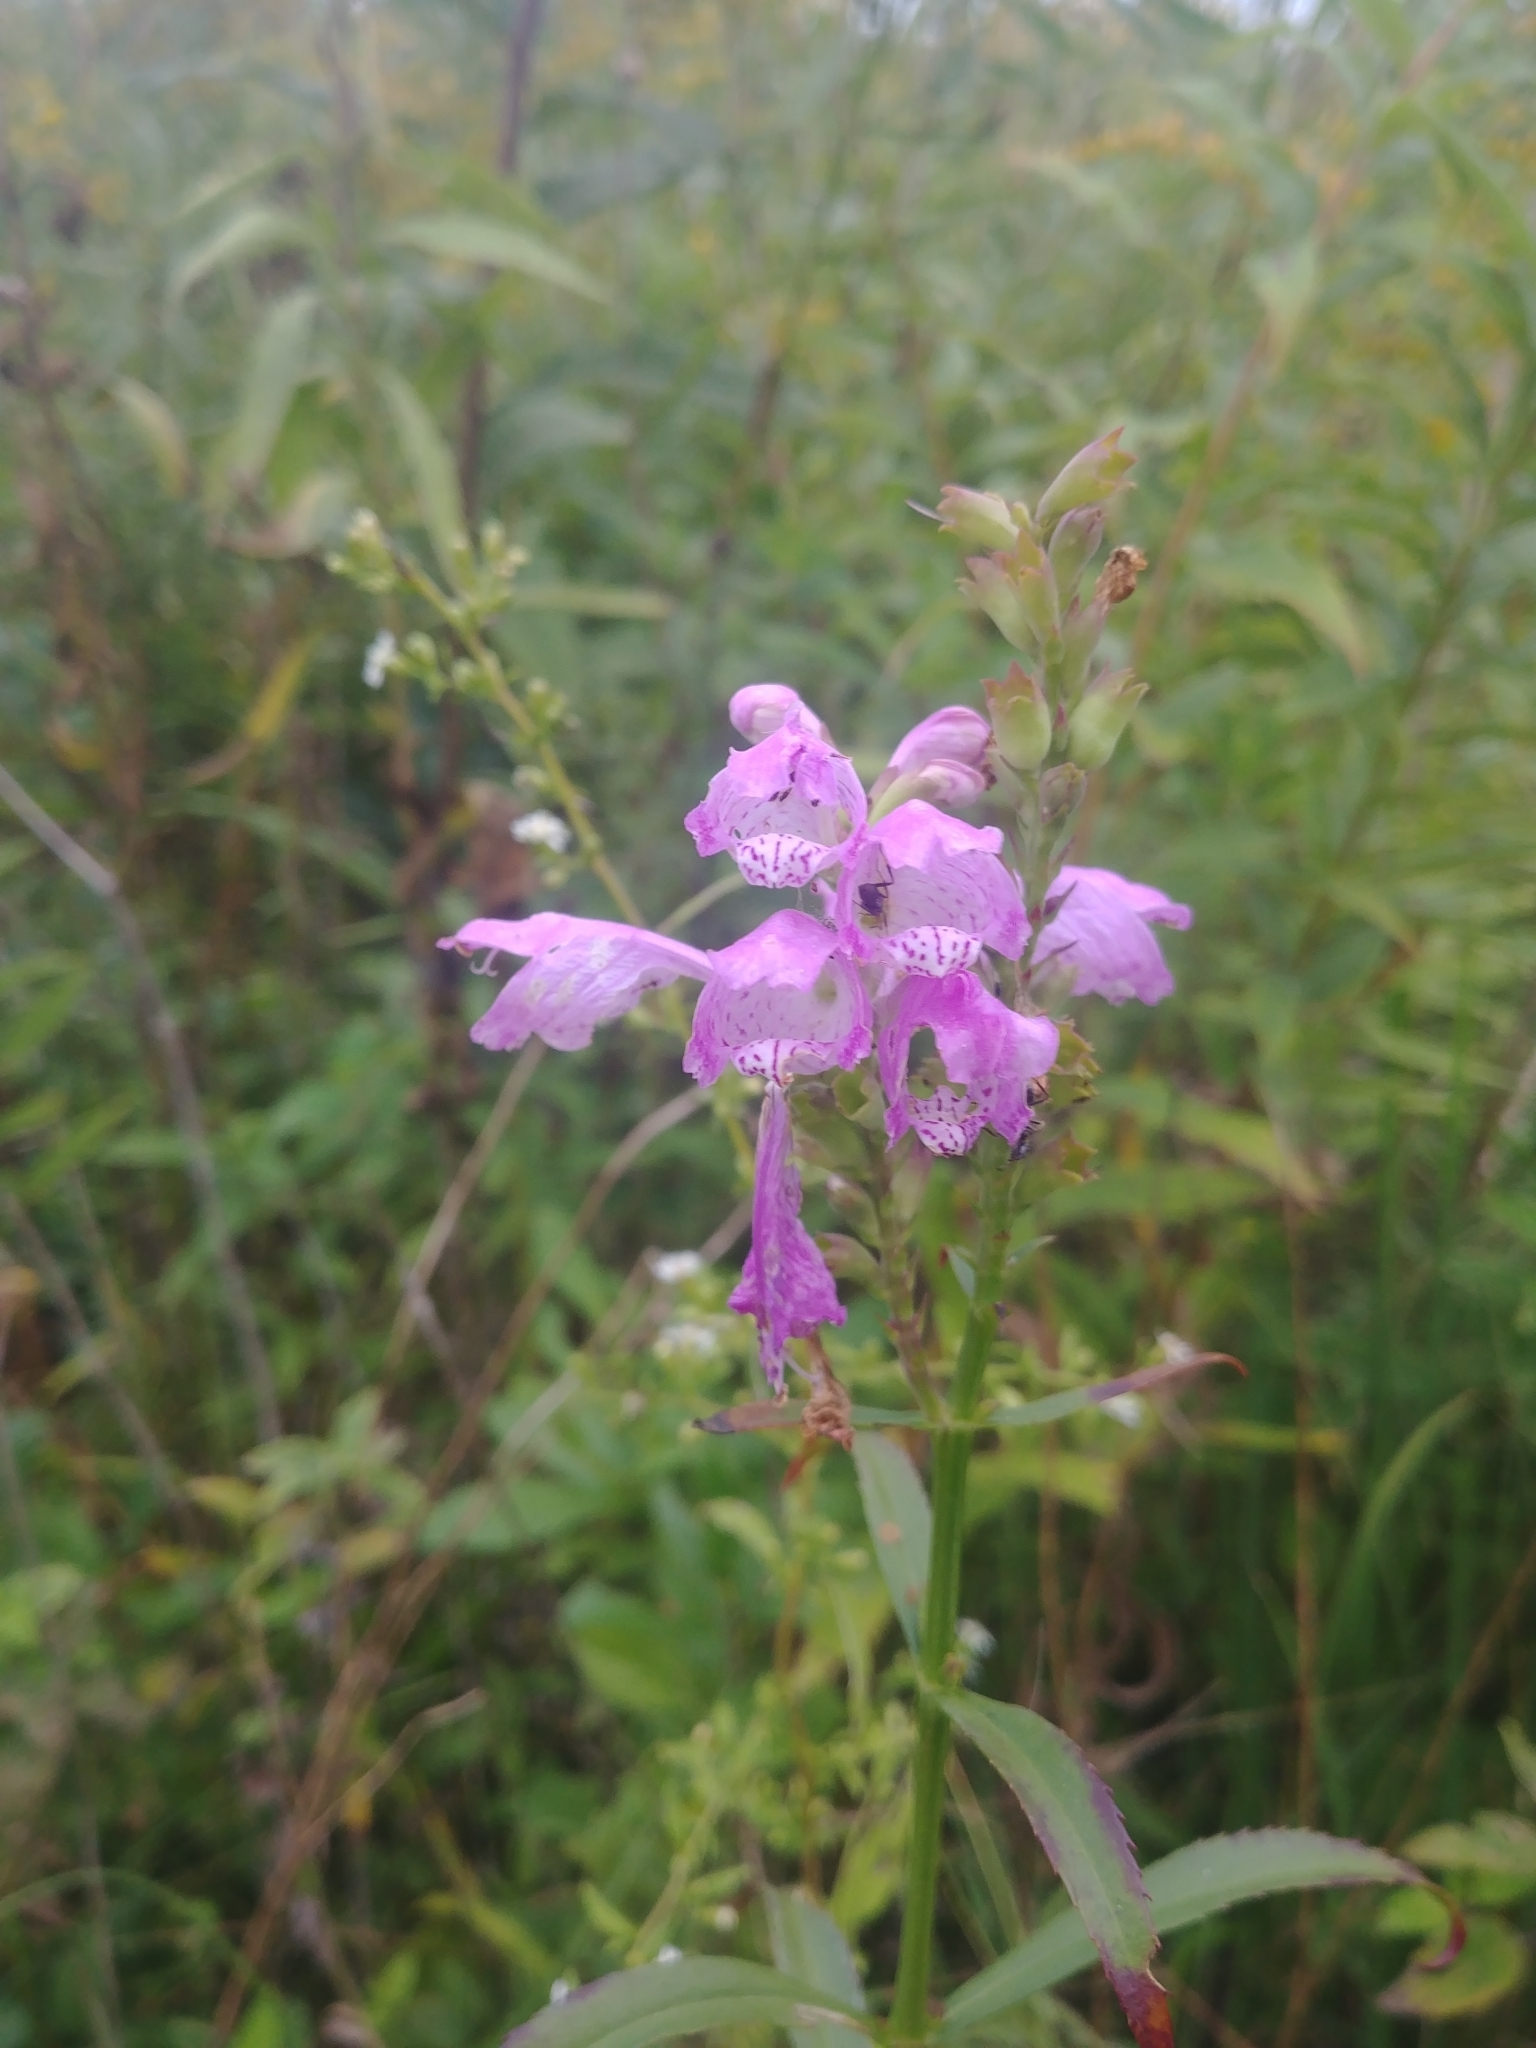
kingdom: Plantae
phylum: Tracheophyta
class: Magnoliopsida
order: Lamiales
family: Lamiaceae
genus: Physostegia
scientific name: Physostegia virginiana
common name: Obedient-plant
